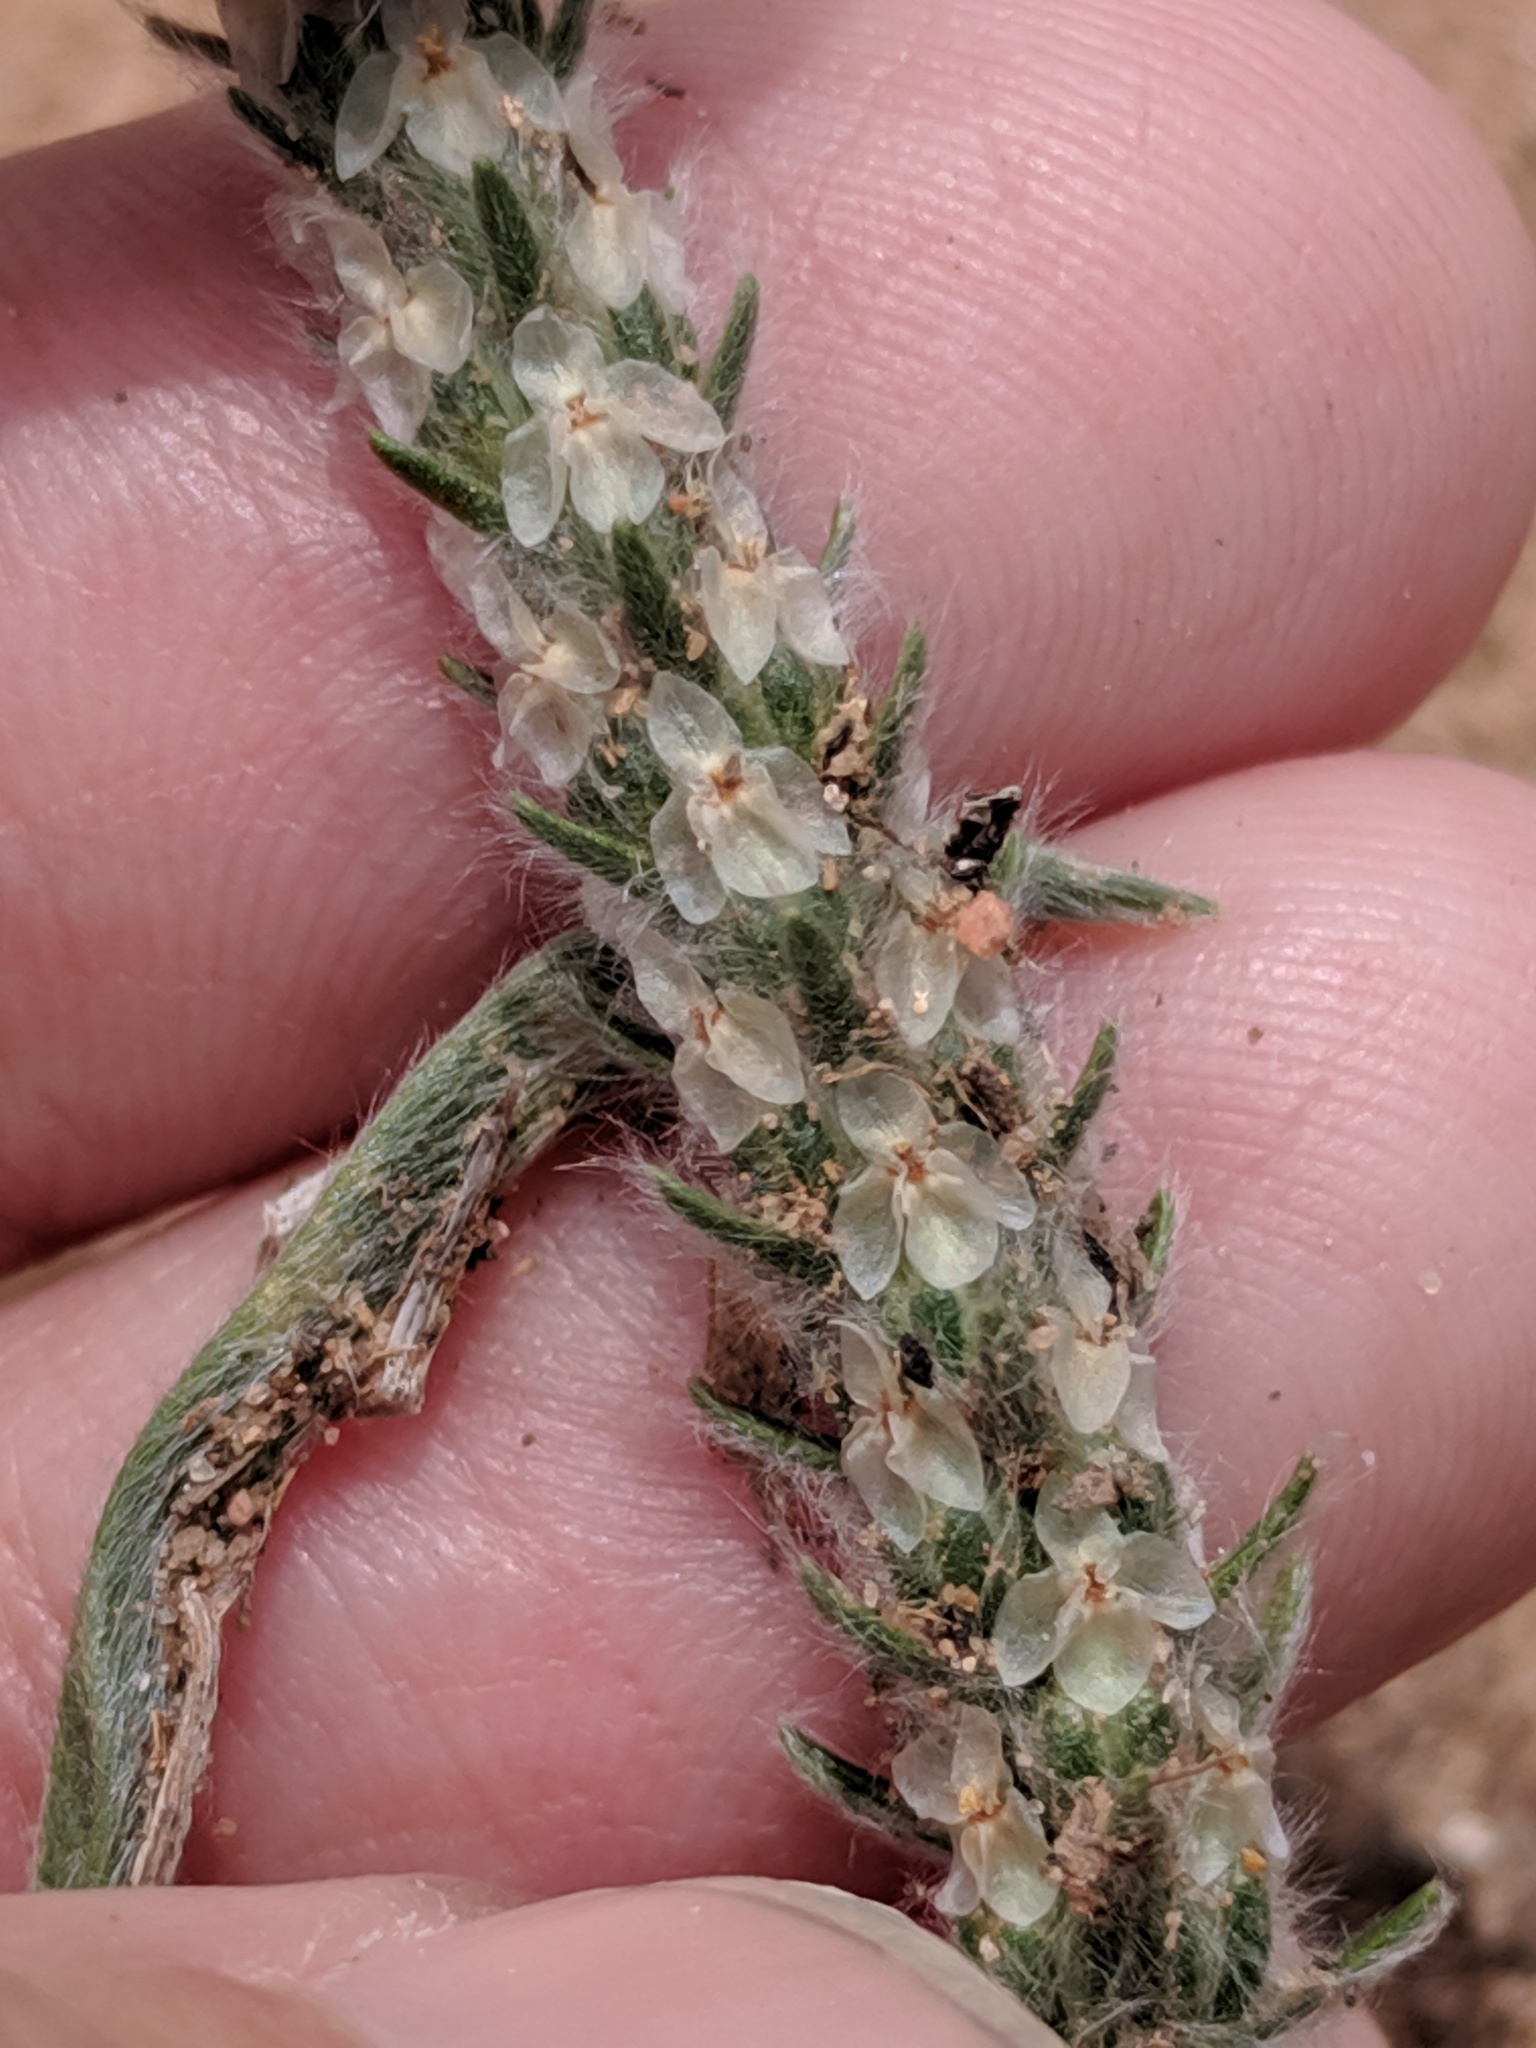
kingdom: Plantae
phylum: Tracheophyta
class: Magnoliopsida
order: Lamiales
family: Plantaginaceae
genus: Plantago
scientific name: Plantago patagonica
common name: Patagonia indian-wheat
